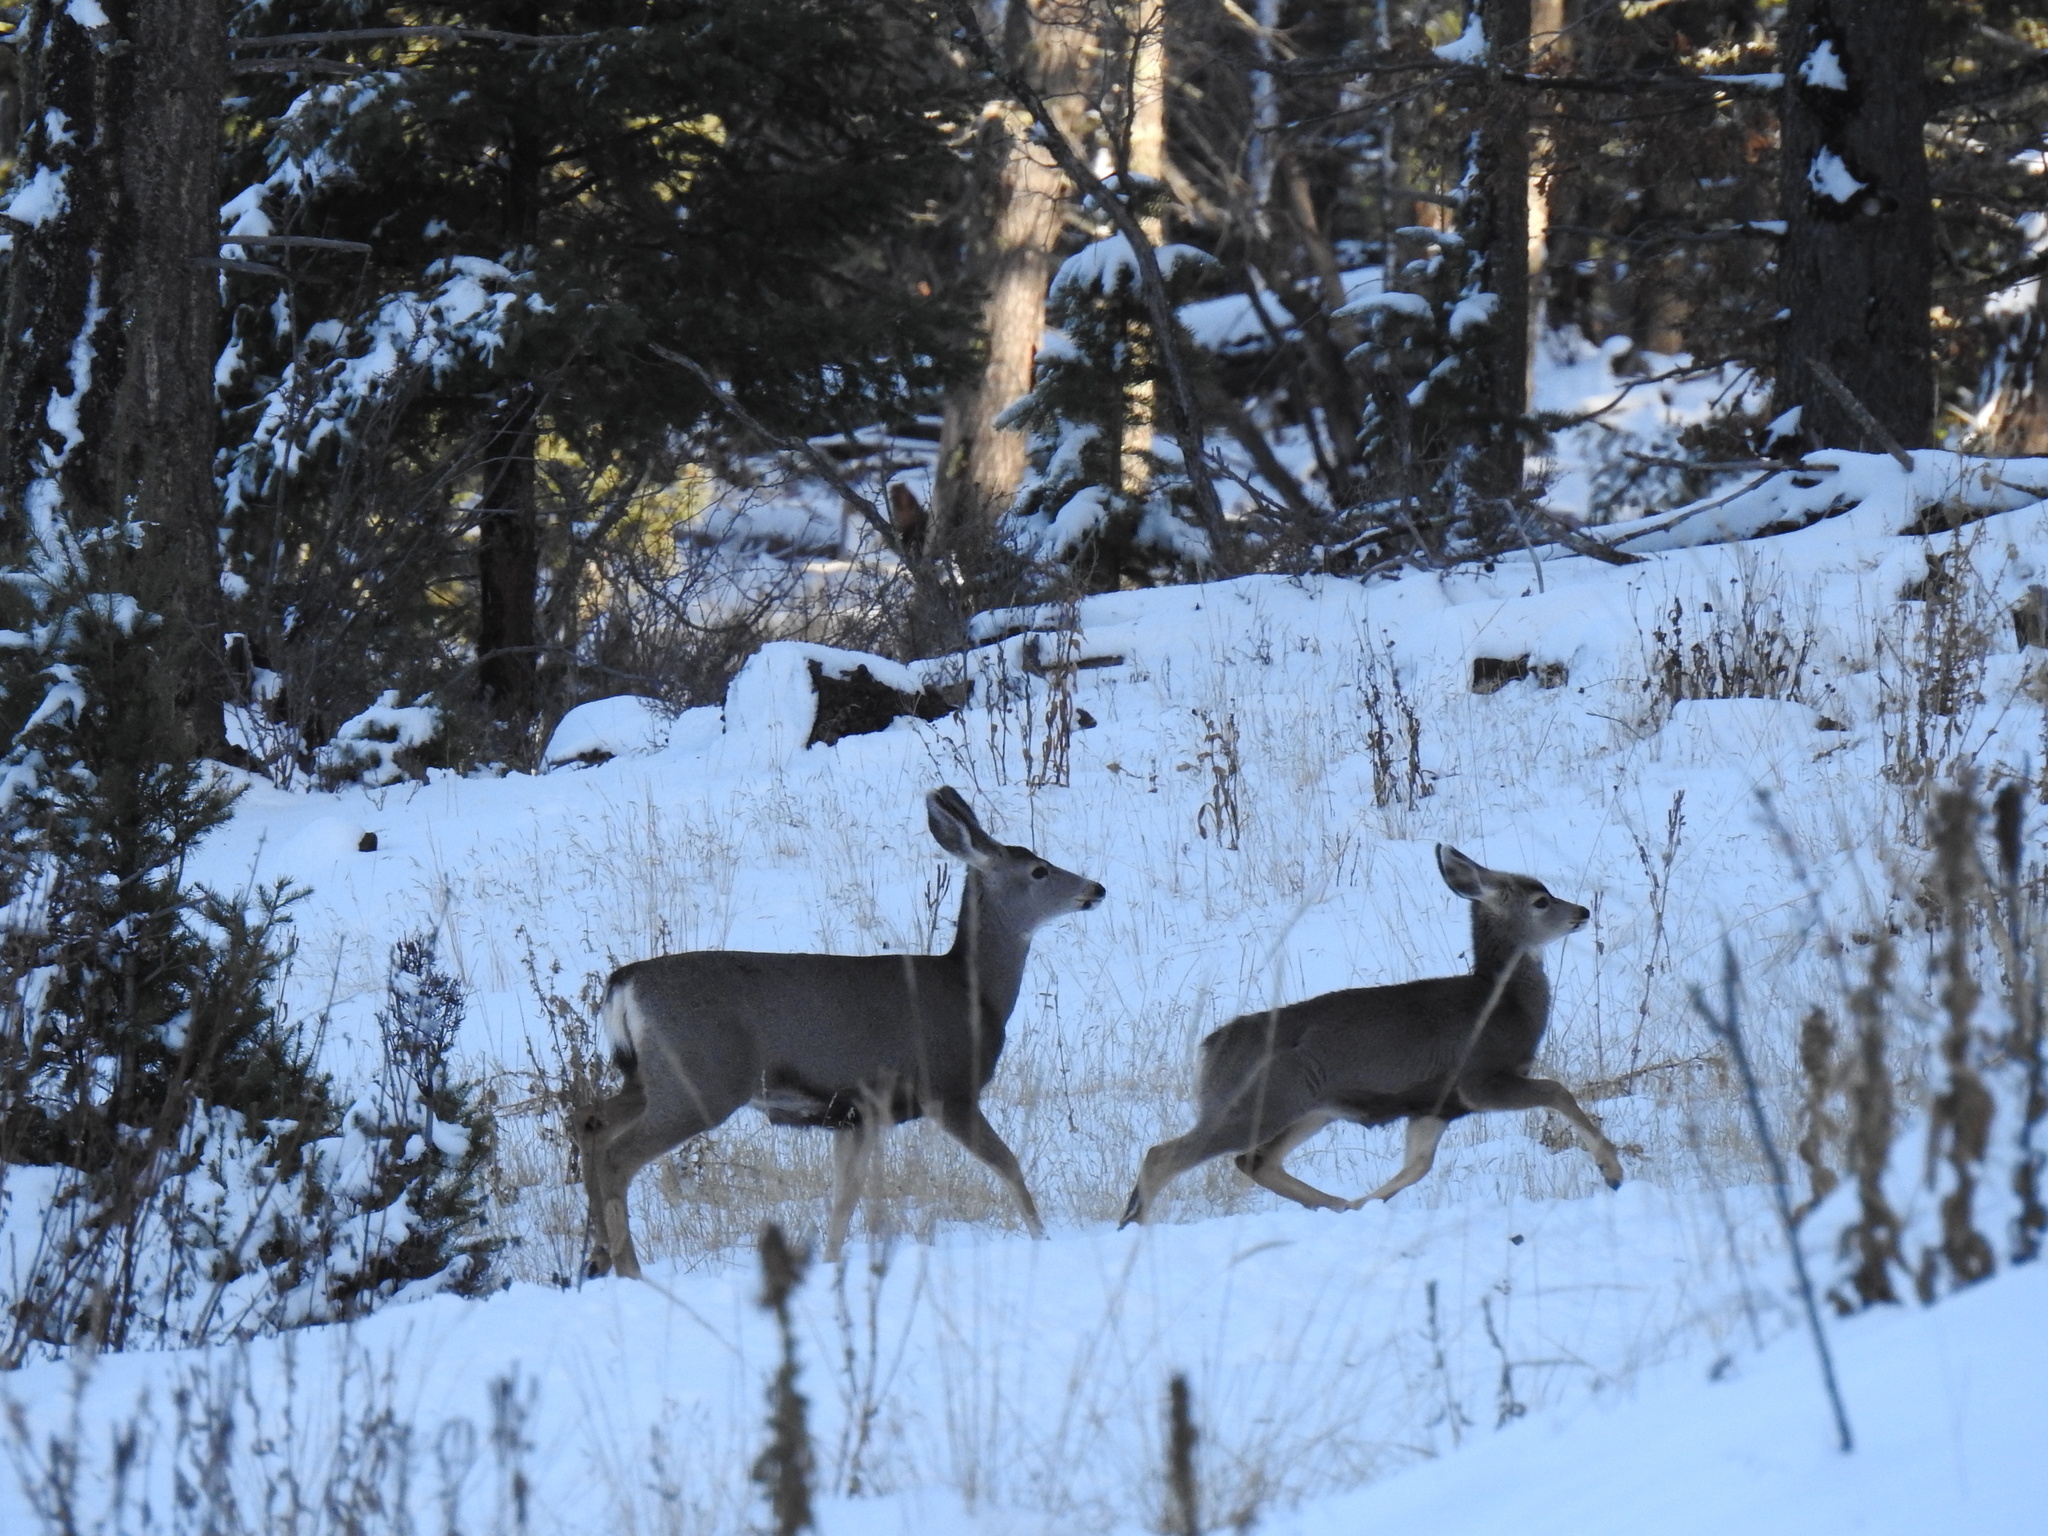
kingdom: Animalia
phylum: Chordata
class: Mammalia
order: Artiodactyla
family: Cervidae
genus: Odocoileus
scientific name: Odocoileus hemionus
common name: Mule deer
